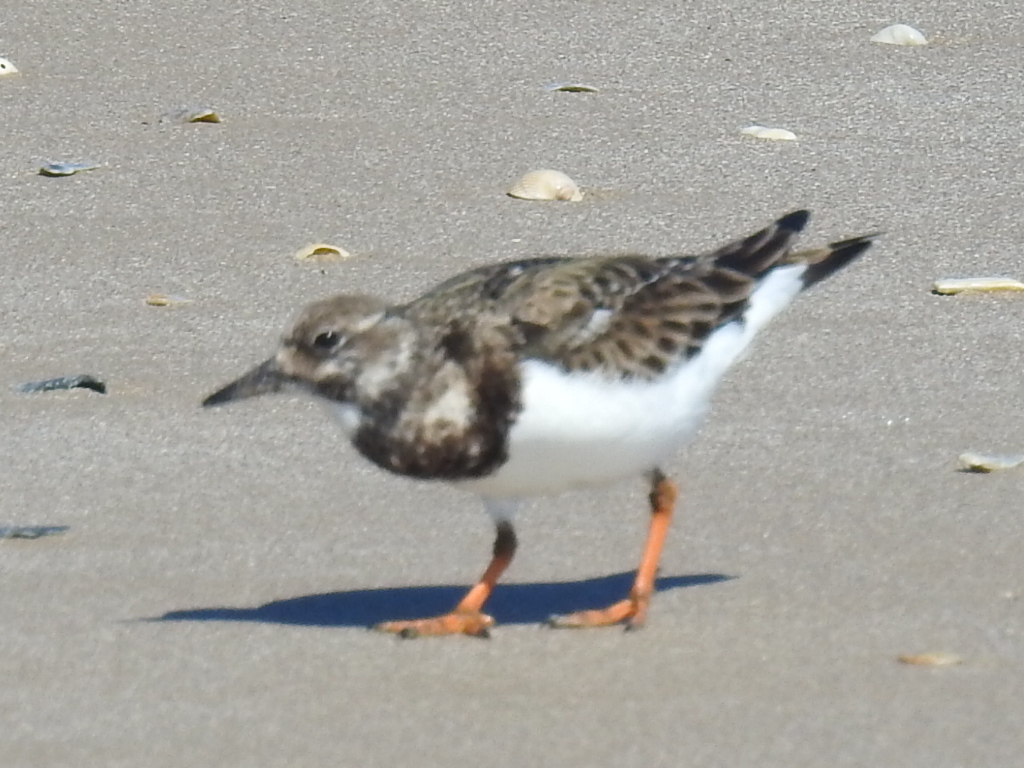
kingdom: Animalia
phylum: Chordata
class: Aves
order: Charadriiformes
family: Scolopacidae
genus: Arenaria
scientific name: Arenaria interpres
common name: Ruddy turnstone
